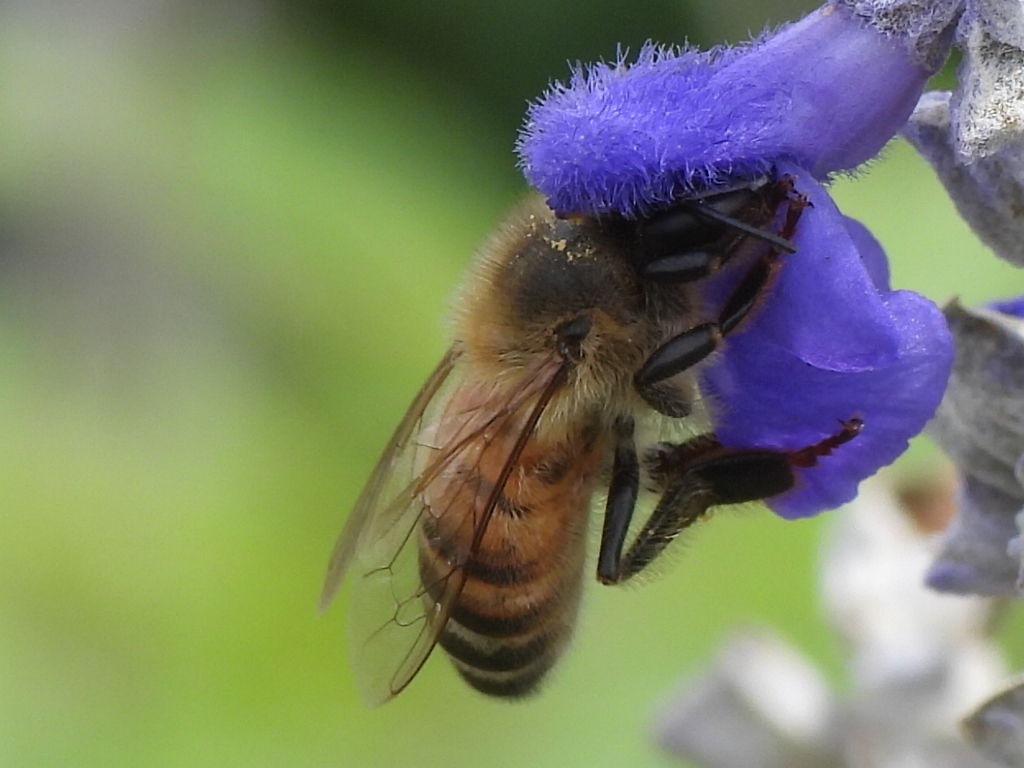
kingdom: Animalia
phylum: Arthropoda
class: Insecta
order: Hymenoptera
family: Apidae
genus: Apis
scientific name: Apis mellifera
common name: Honey bee
